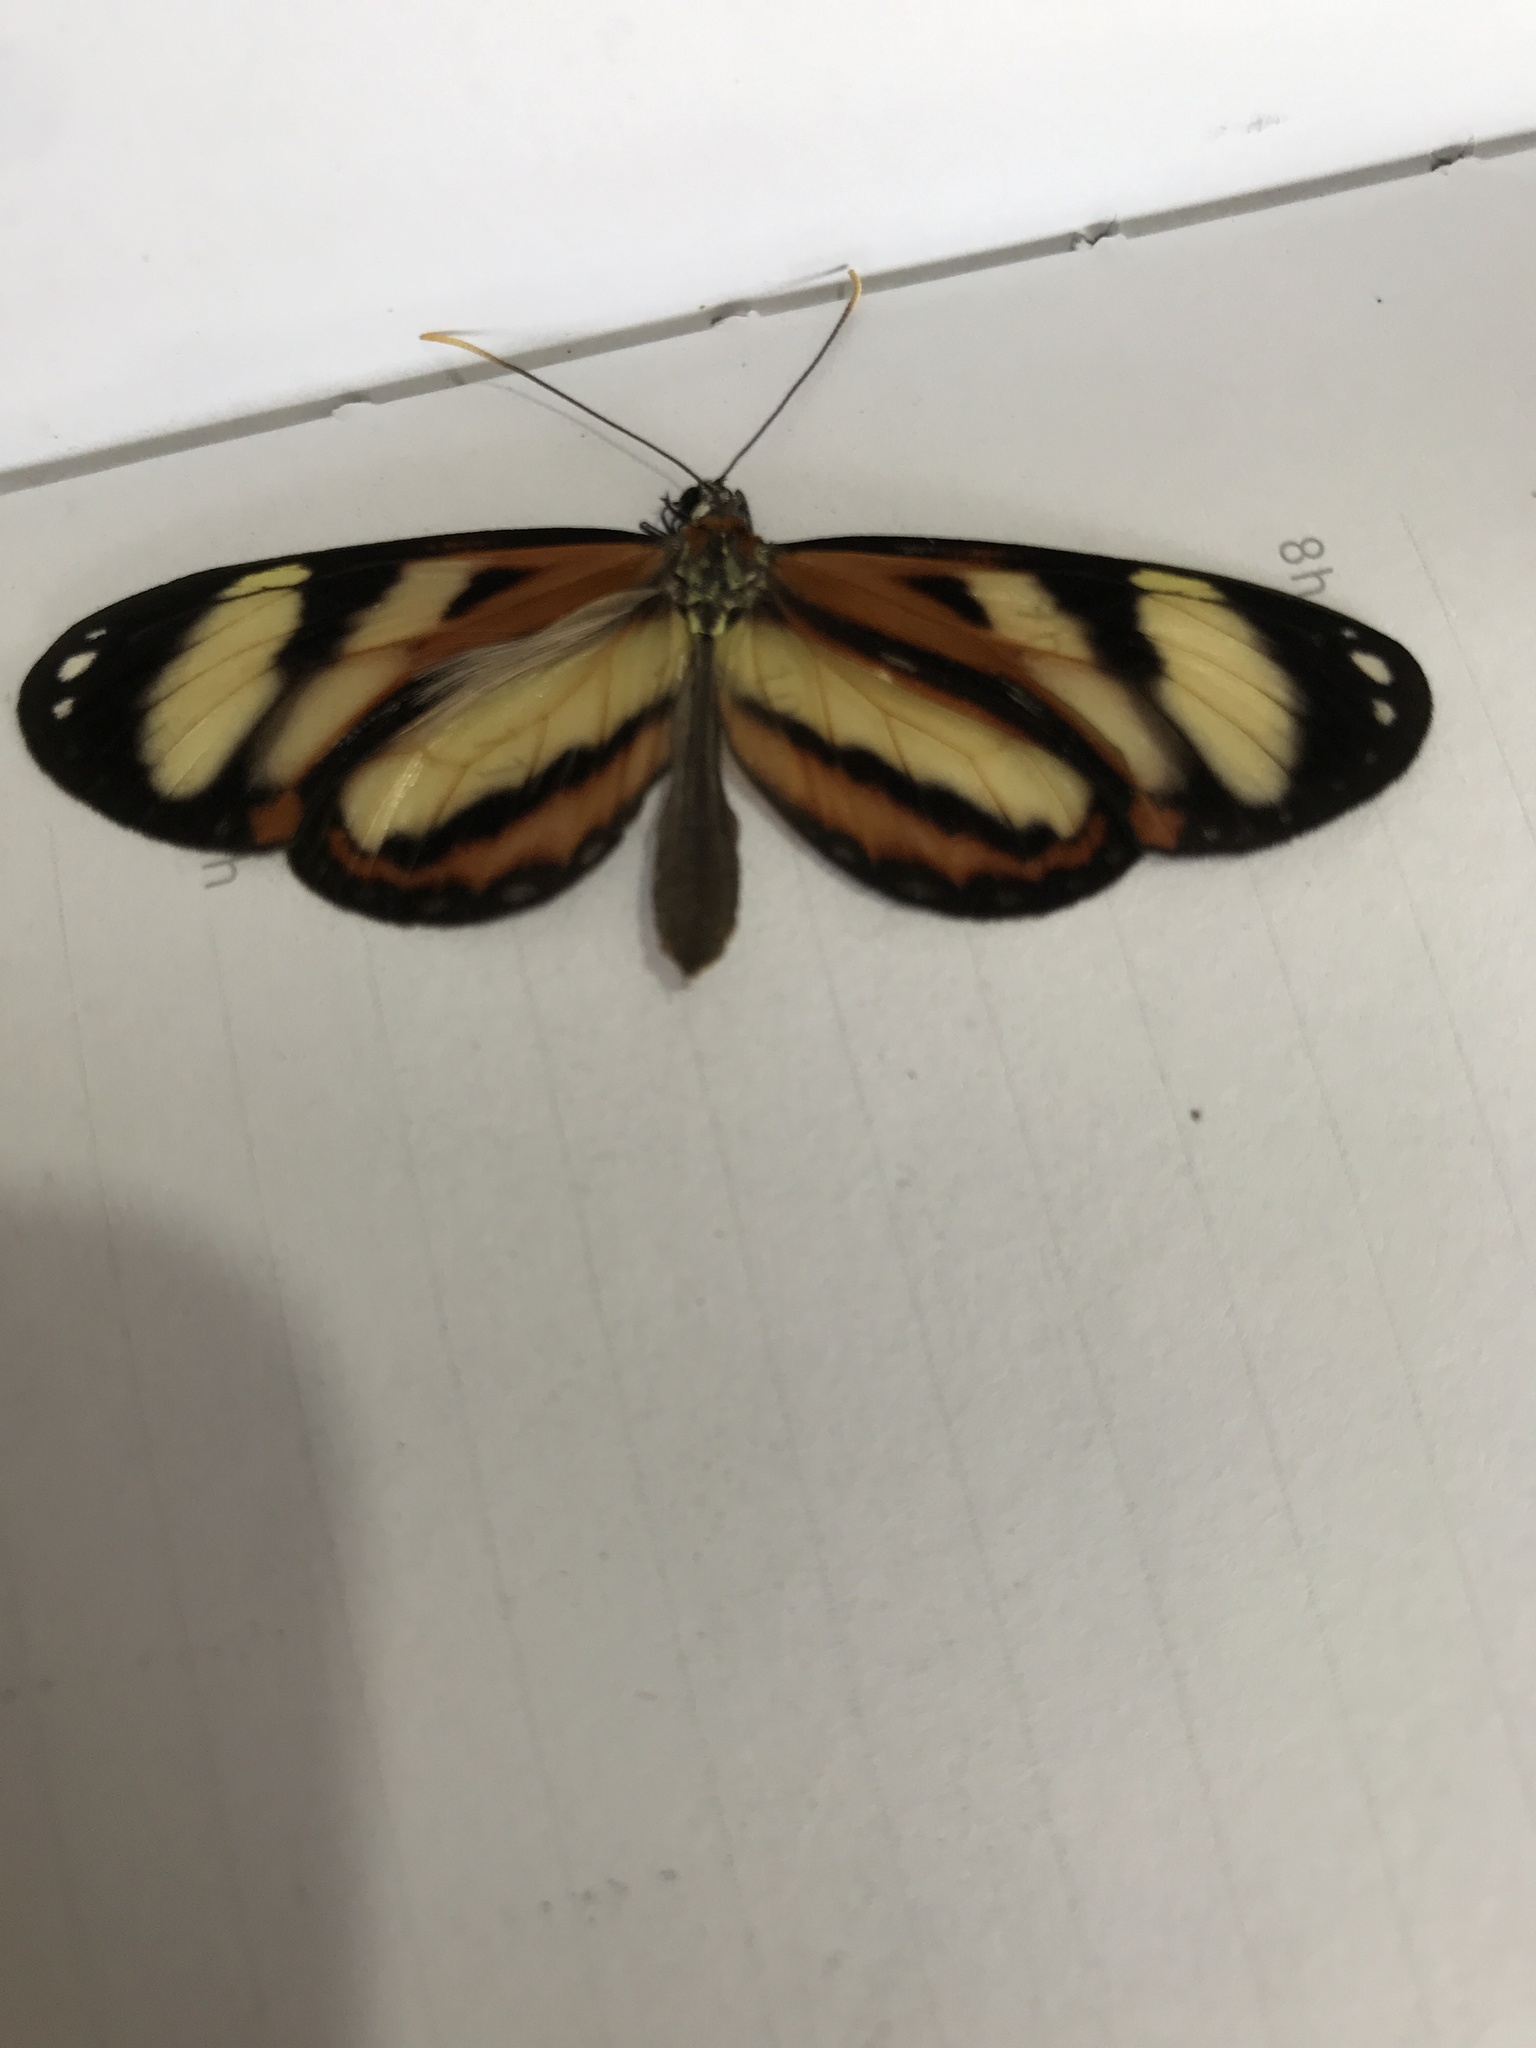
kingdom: Animalia
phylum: Arthropoda
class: Insecta
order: Lepidoptera
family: Nymphalidae
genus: Hypothyris
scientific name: Hypothyris ninonia
